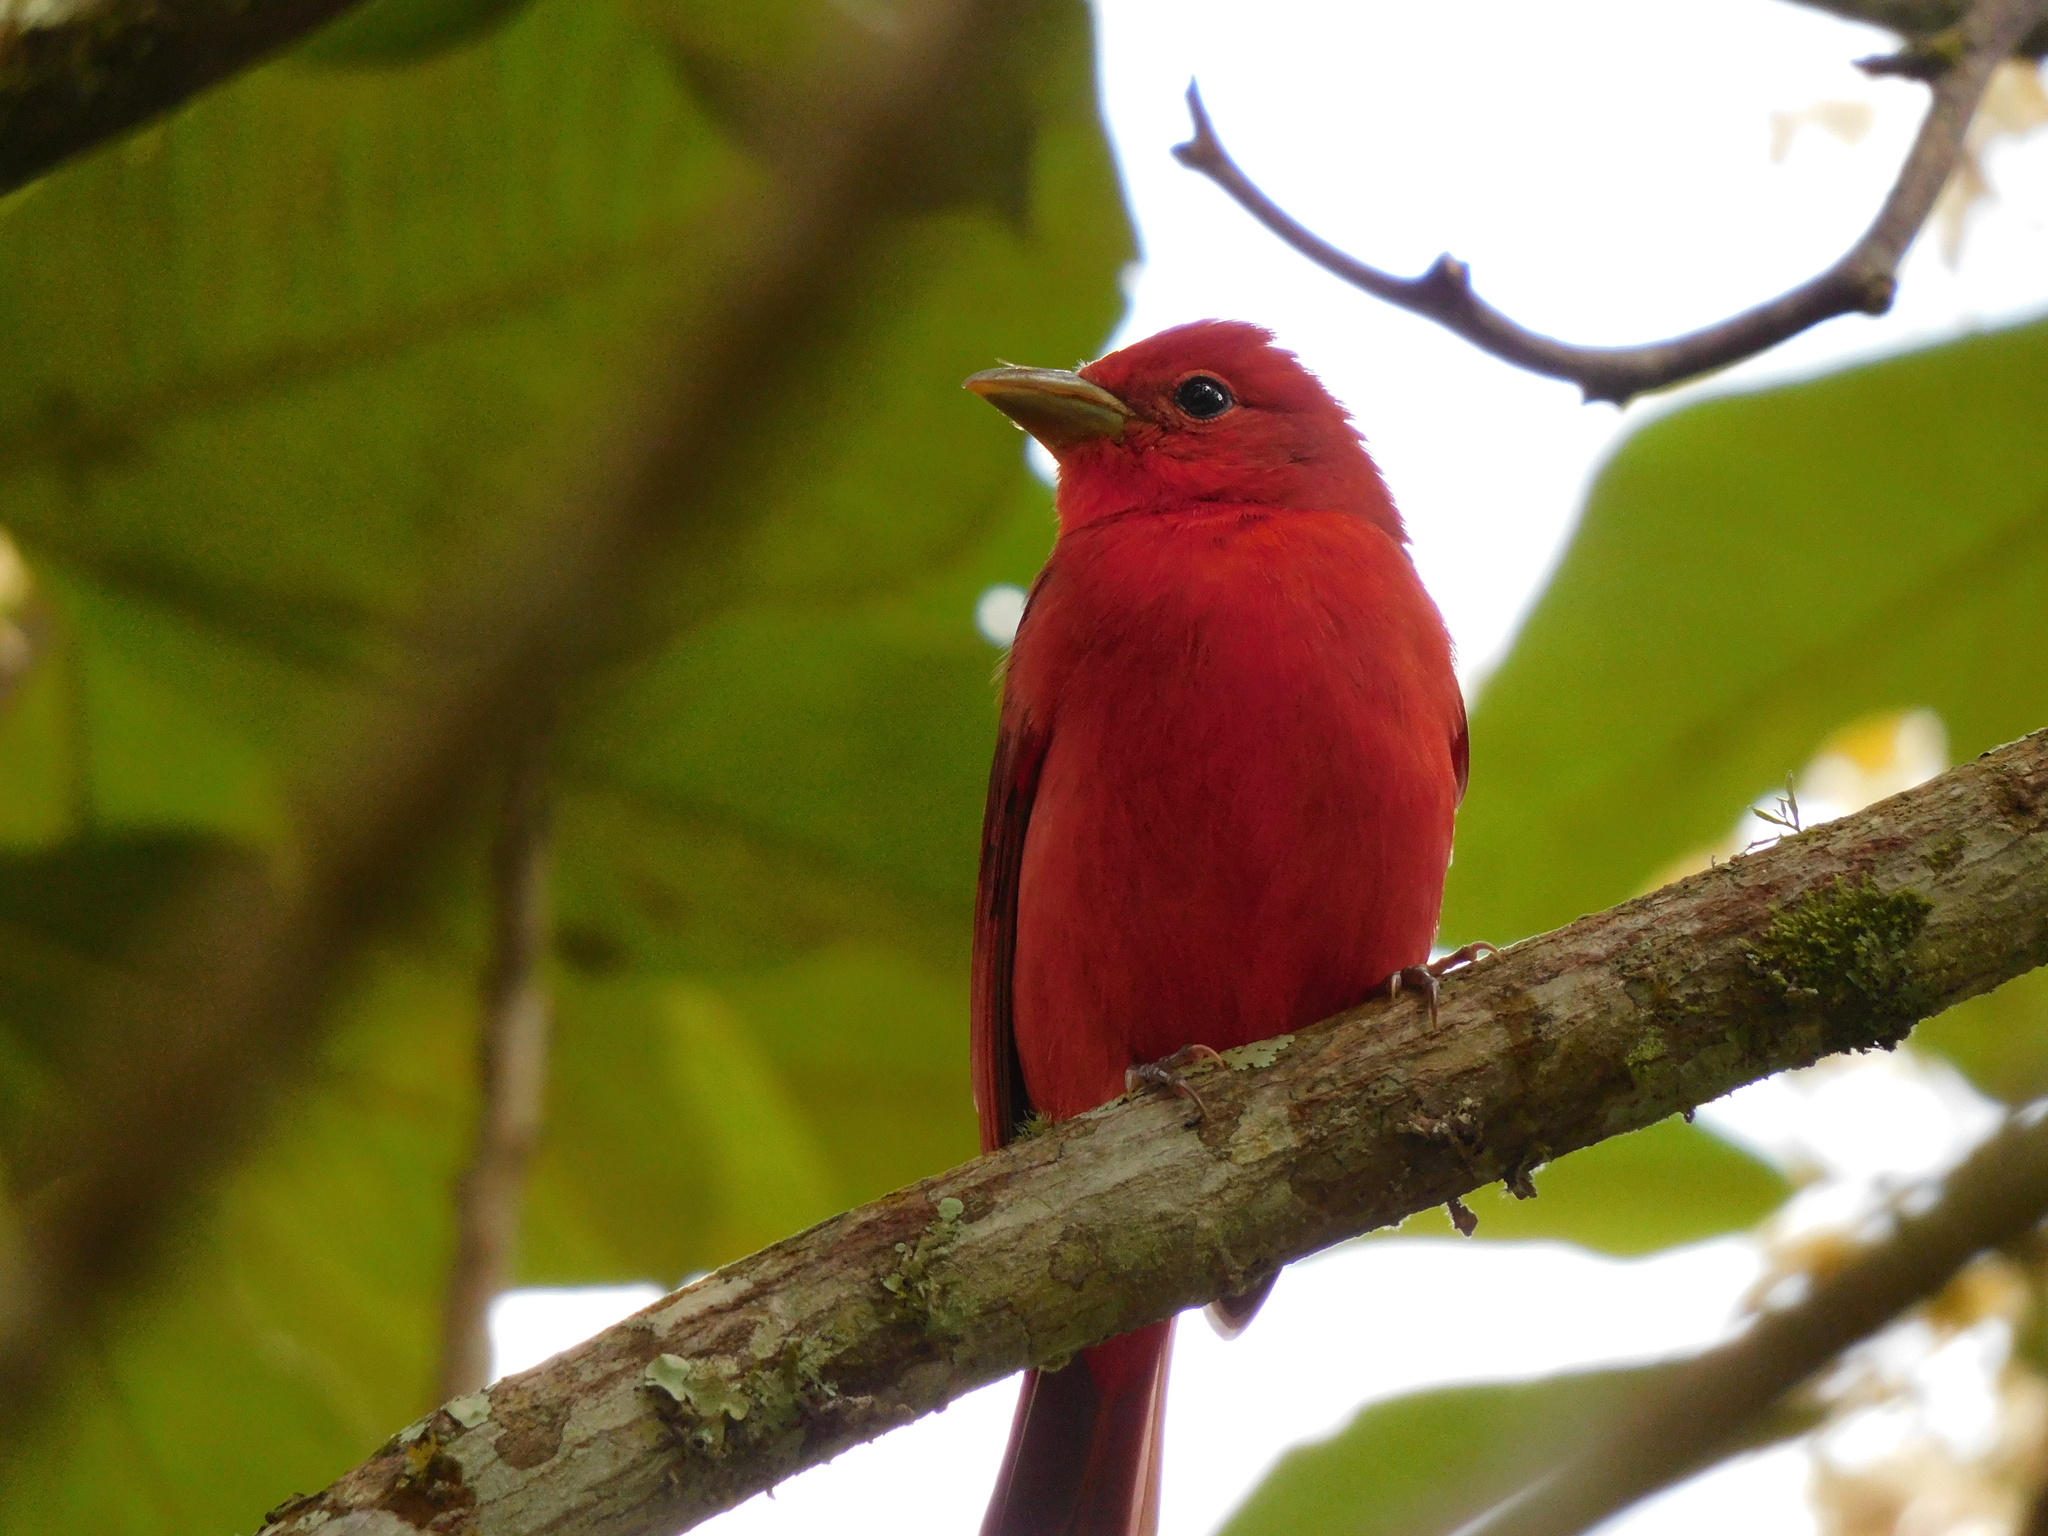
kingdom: Animalia
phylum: Chordata
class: Aves
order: Passeriformes
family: Cardinalidae
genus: Piranga
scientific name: Piranga rubra
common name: Summer tanager
